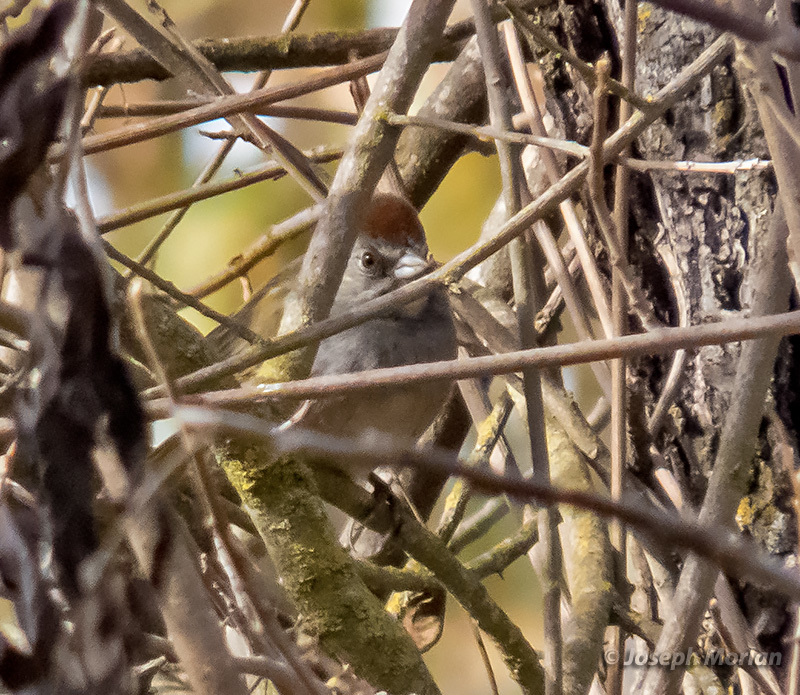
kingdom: Animalia
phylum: Chordata
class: Aves
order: Passeriformes
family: Passerellidae
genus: Pipilo
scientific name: Pipilo chlorurus
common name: Green-tailed towhee
